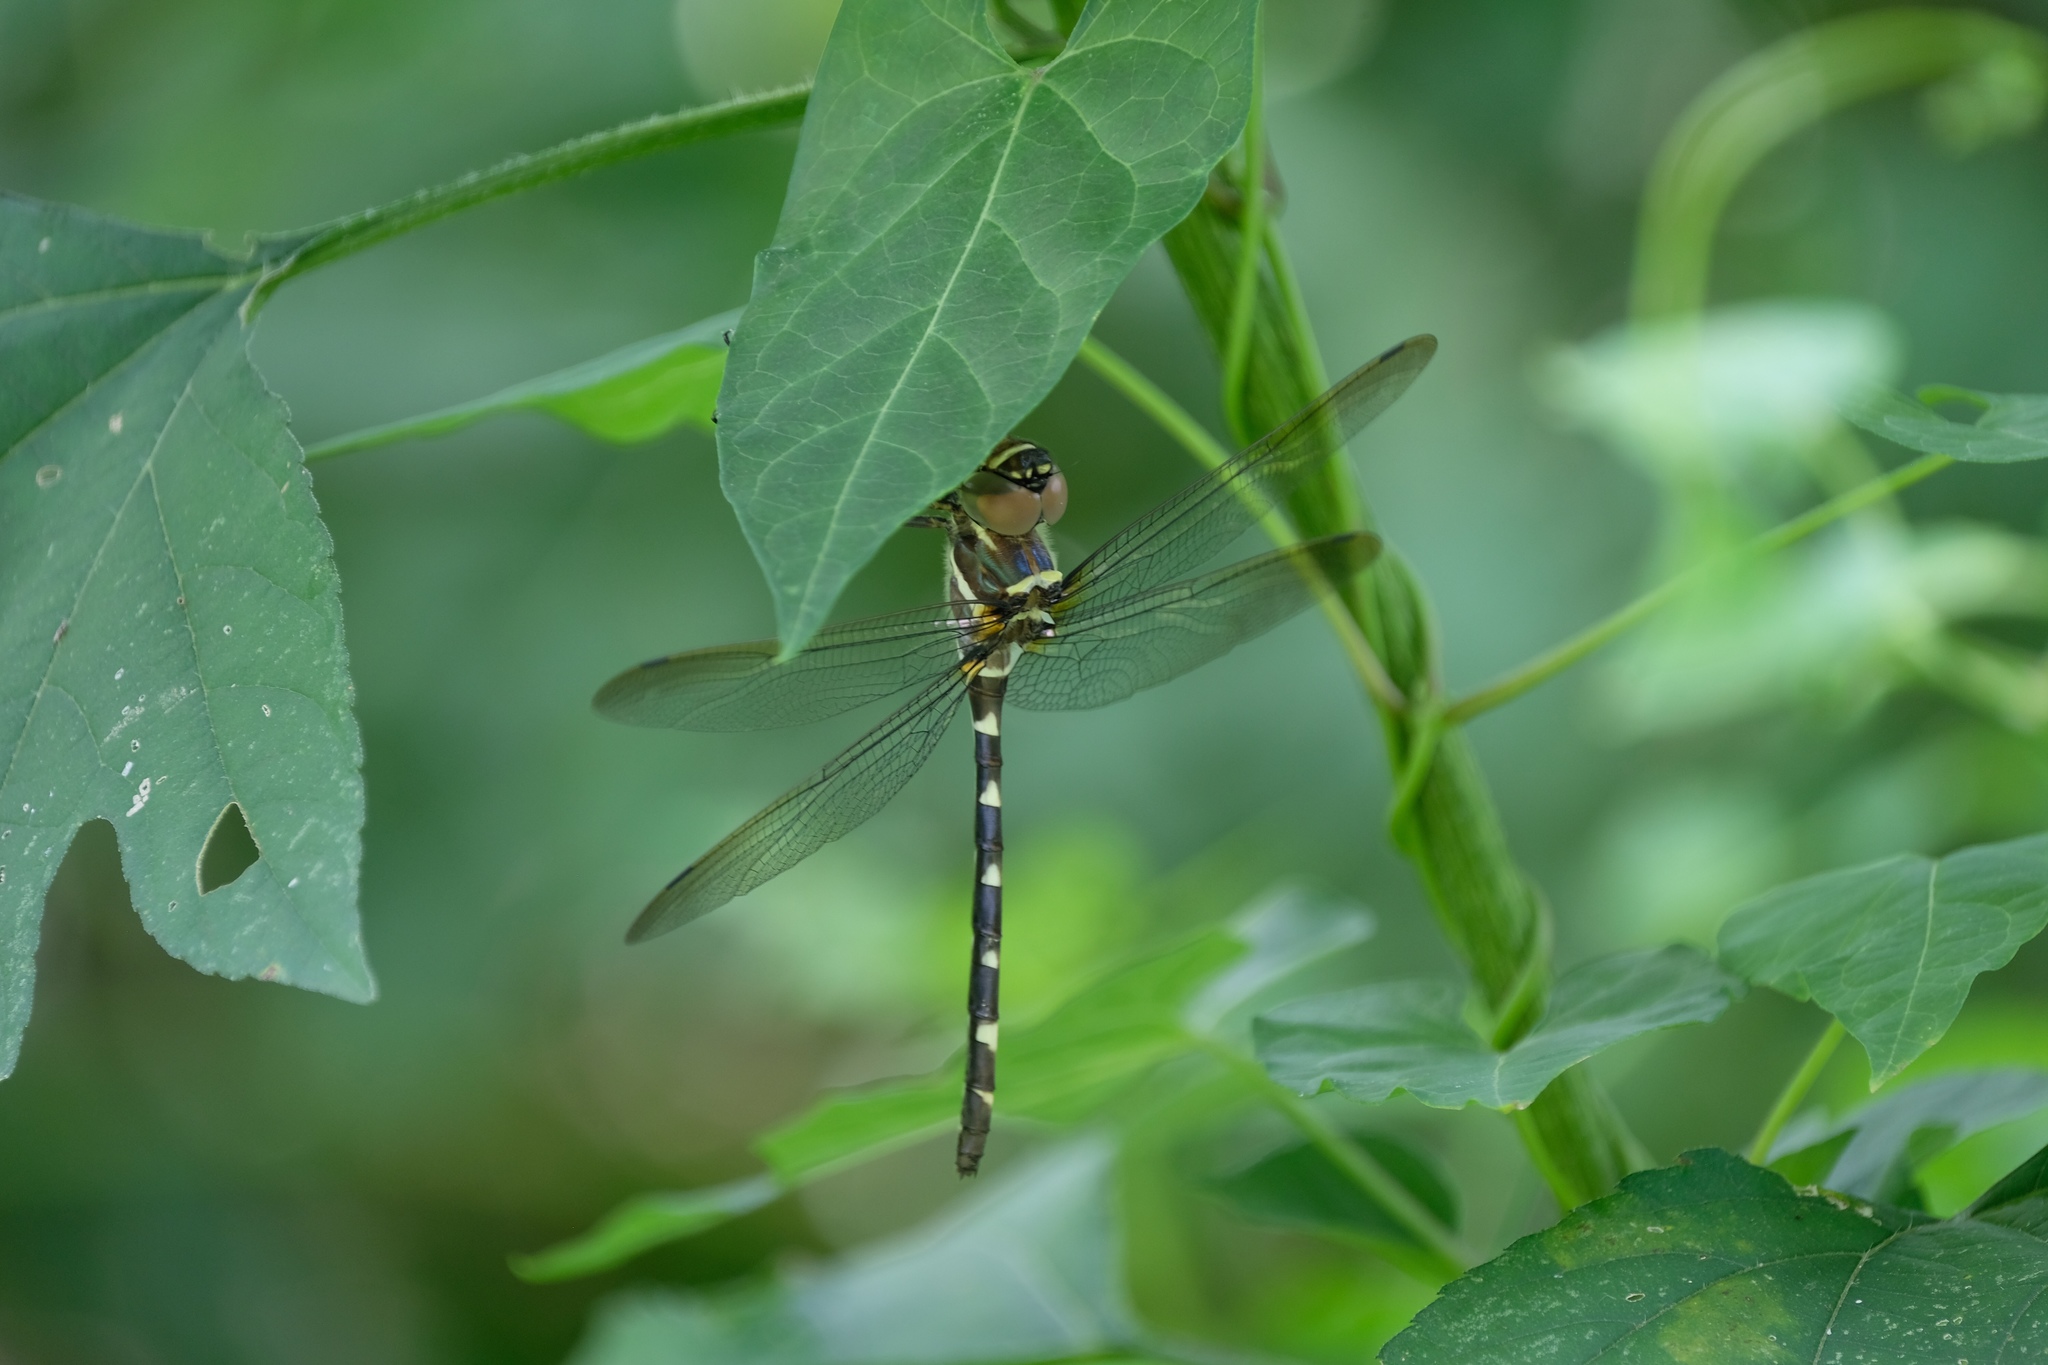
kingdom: Animalia
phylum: Arthropoda
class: Insecta
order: Odonata
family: Macromiidae
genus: Macromia
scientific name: Macromia illinoiensis
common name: Swift river cruiser
